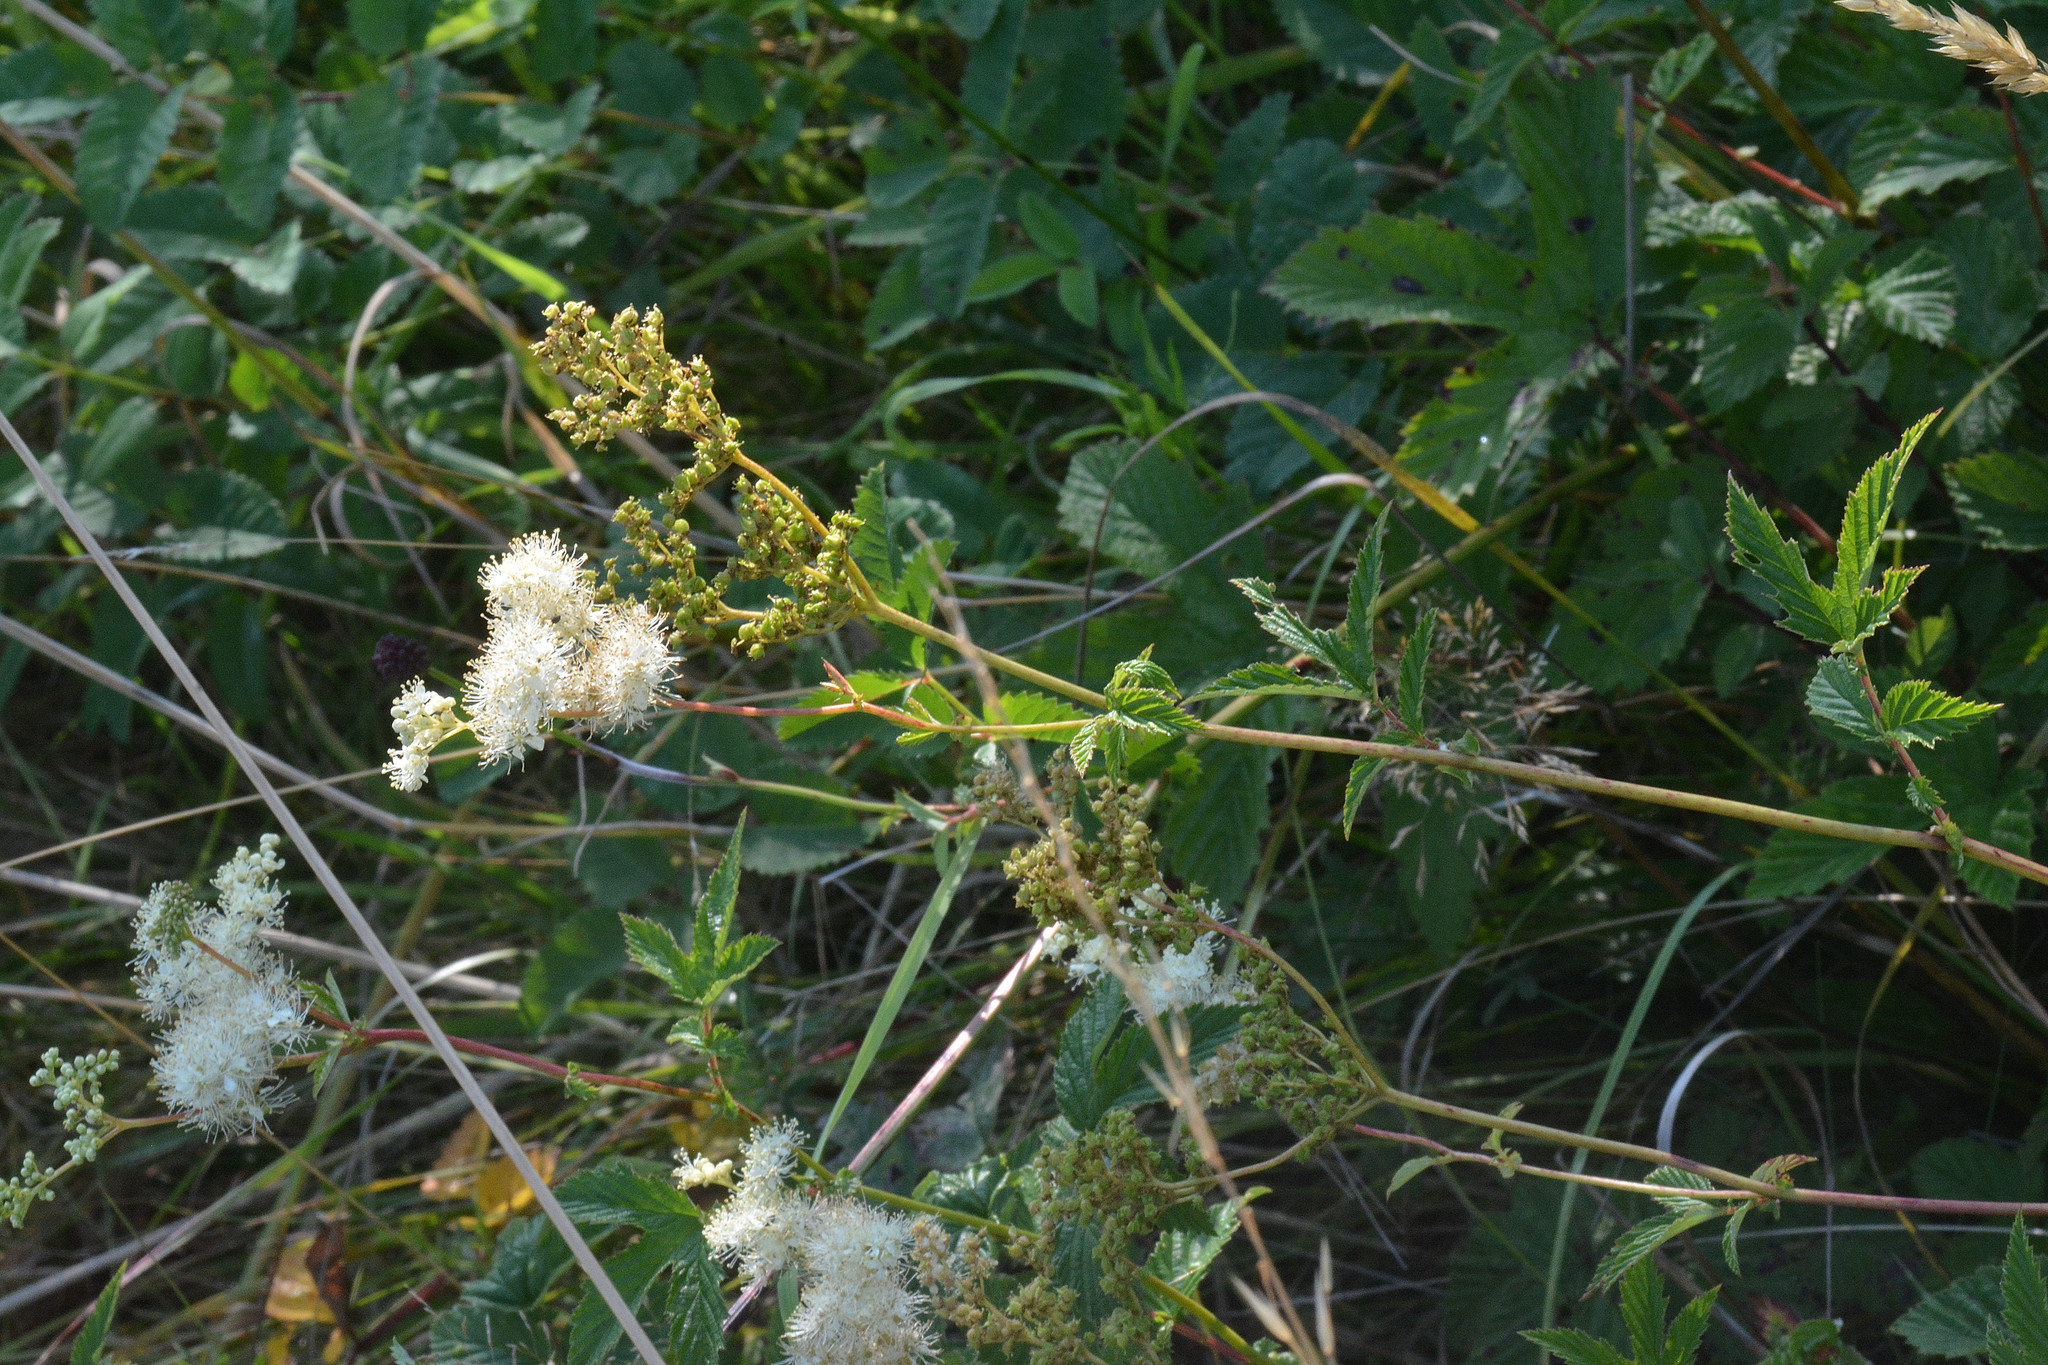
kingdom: Plantae
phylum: Tracheophyta
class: Magnoliopsida
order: Rosales
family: Rosaceae
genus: Filipendula
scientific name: Filipendula ulmaria
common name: Meadowsweet
